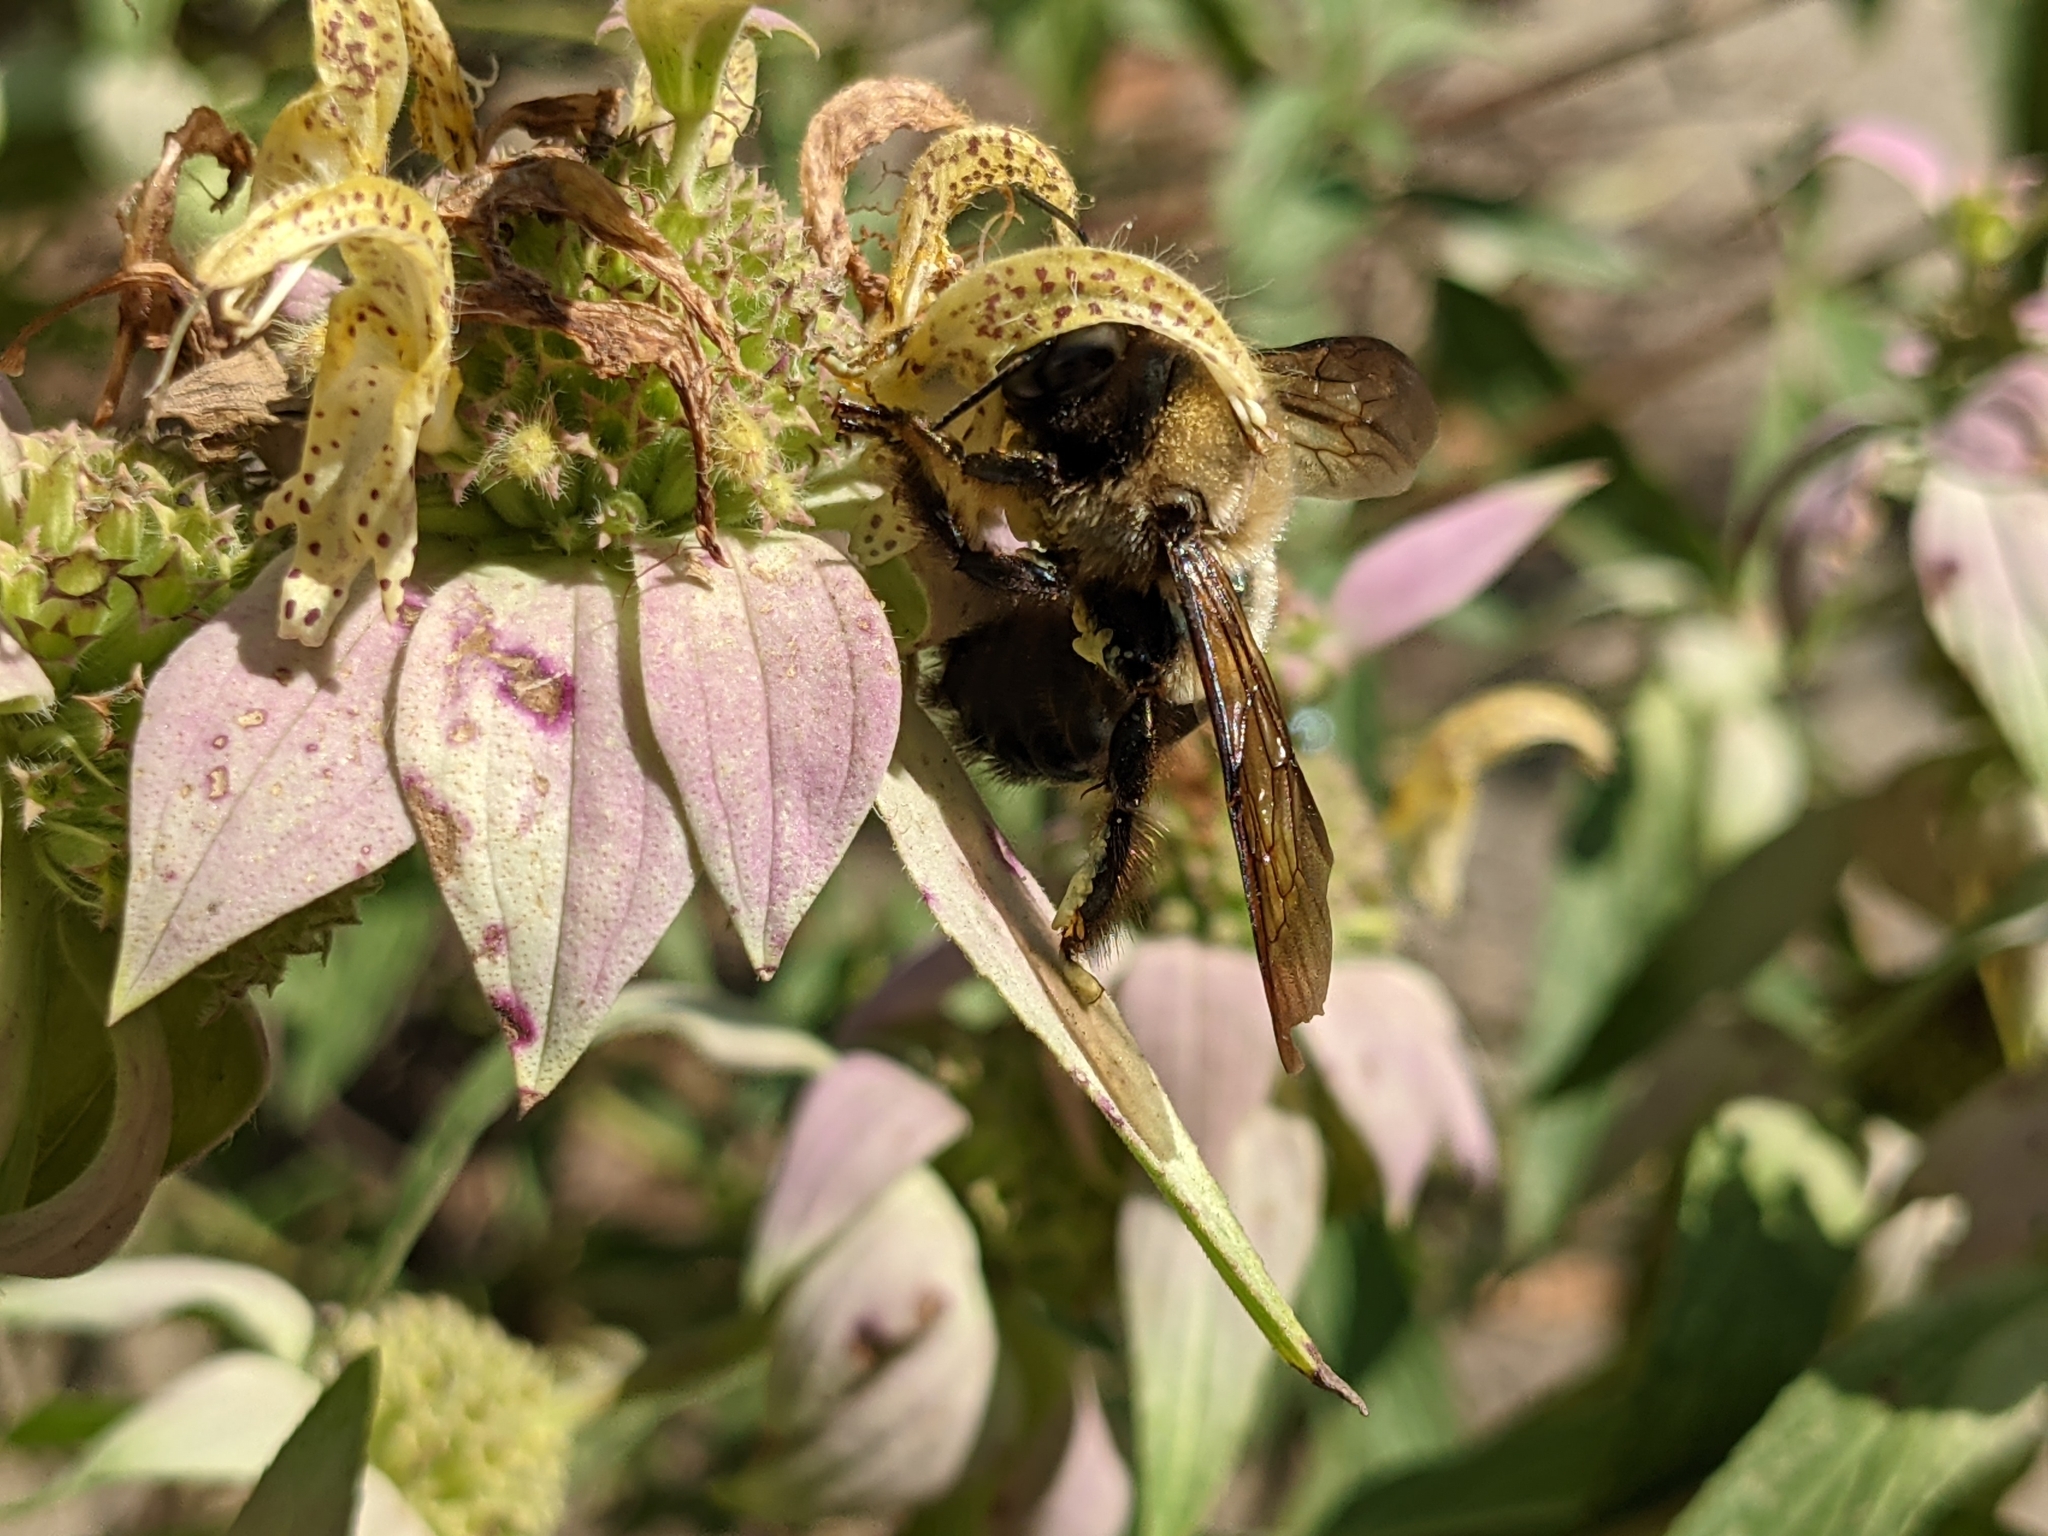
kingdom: Animalia
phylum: Arthropoda
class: Insecta
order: Hymenoptera
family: Apidae
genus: Xylocopa
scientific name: Xylocopa virginica
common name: Carpenter bee
